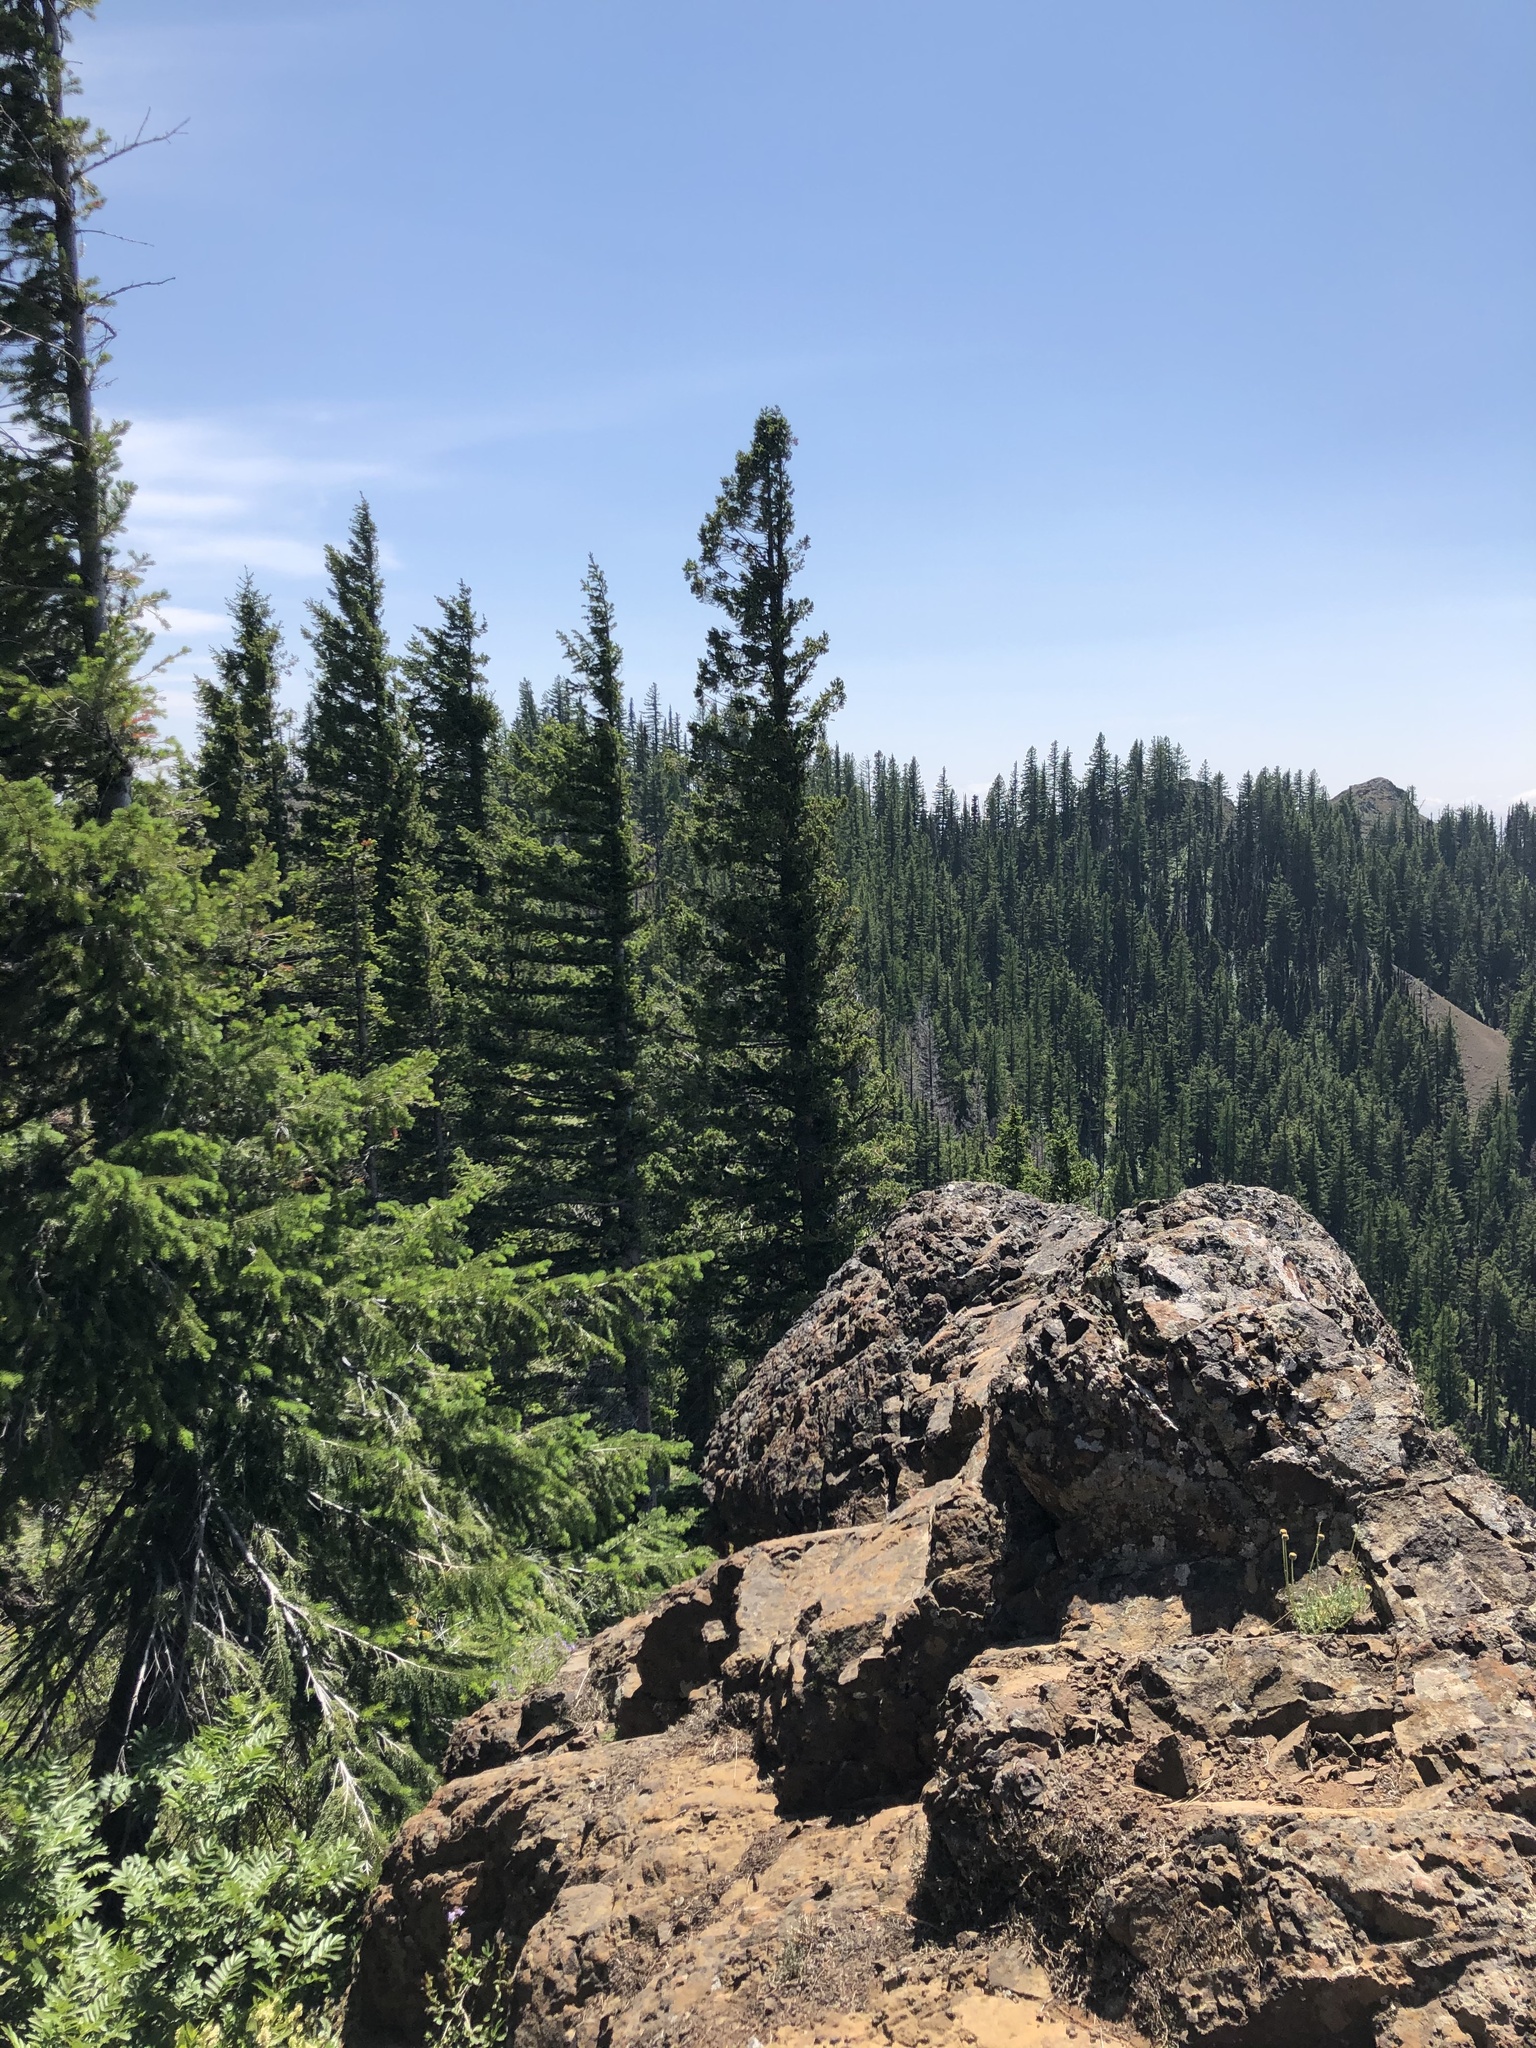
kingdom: Plantae
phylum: Tracheophyta
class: Pinopsida
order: Pinales
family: Pinaceae
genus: Pseudotsuga
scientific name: Pseudotsuga menziesii
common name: Douglas fir
